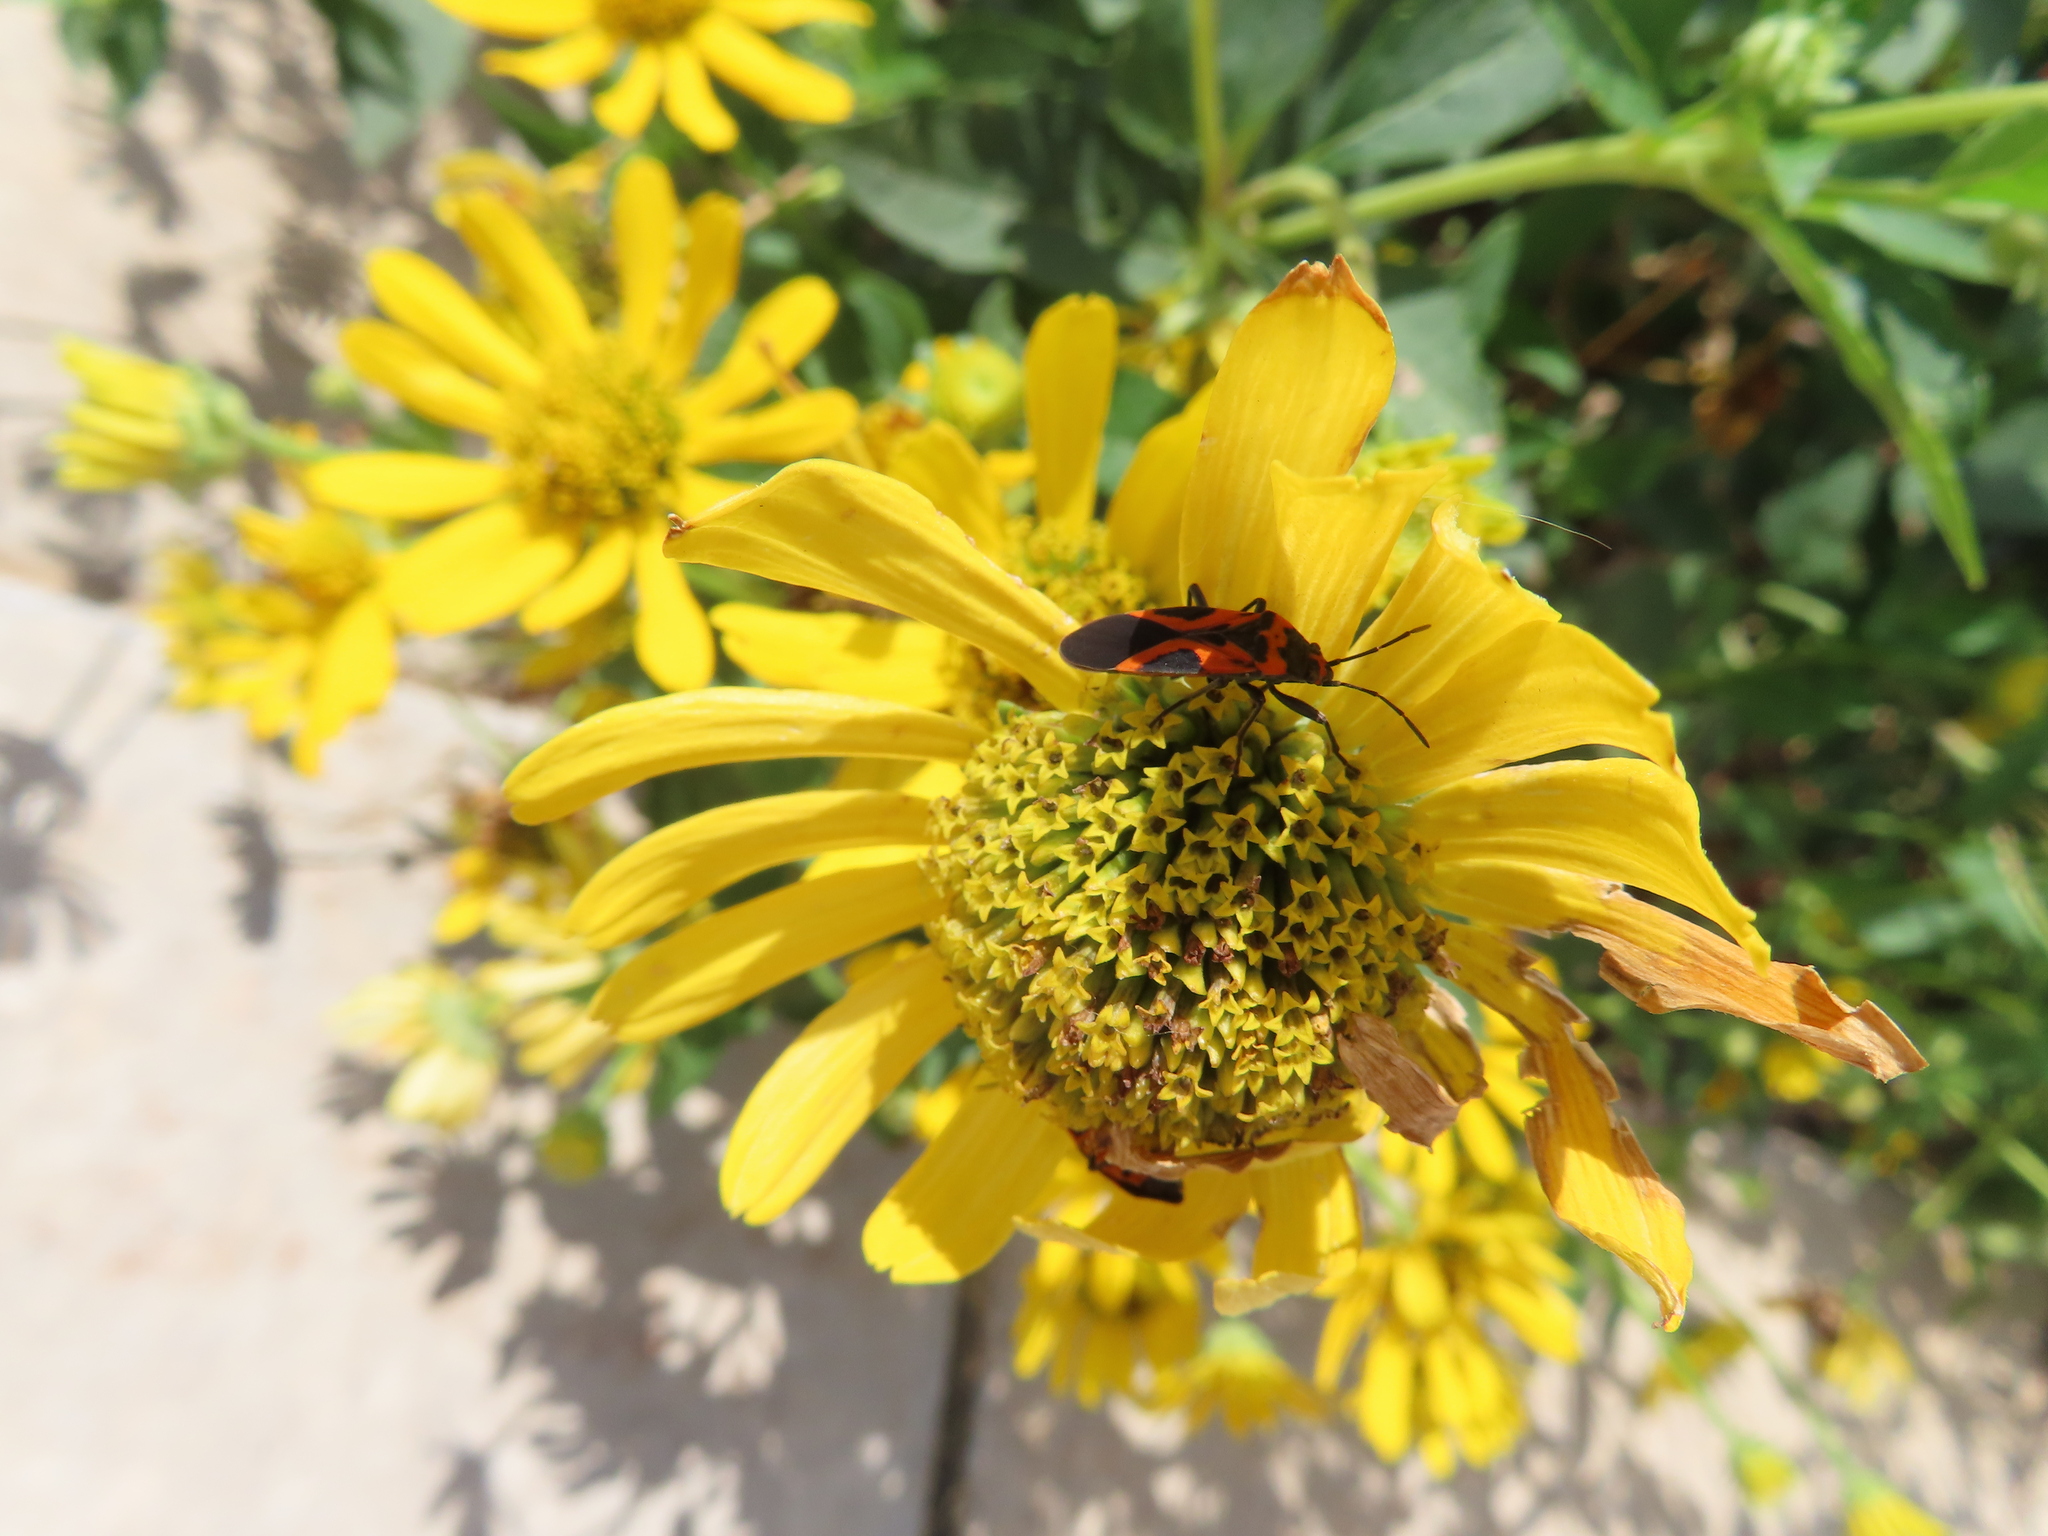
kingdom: Animalia
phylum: Arthropoda
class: Insecta
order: Hemiptera
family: Lygaeidae
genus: Lygaeus
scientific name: Lygaeus turcicus
